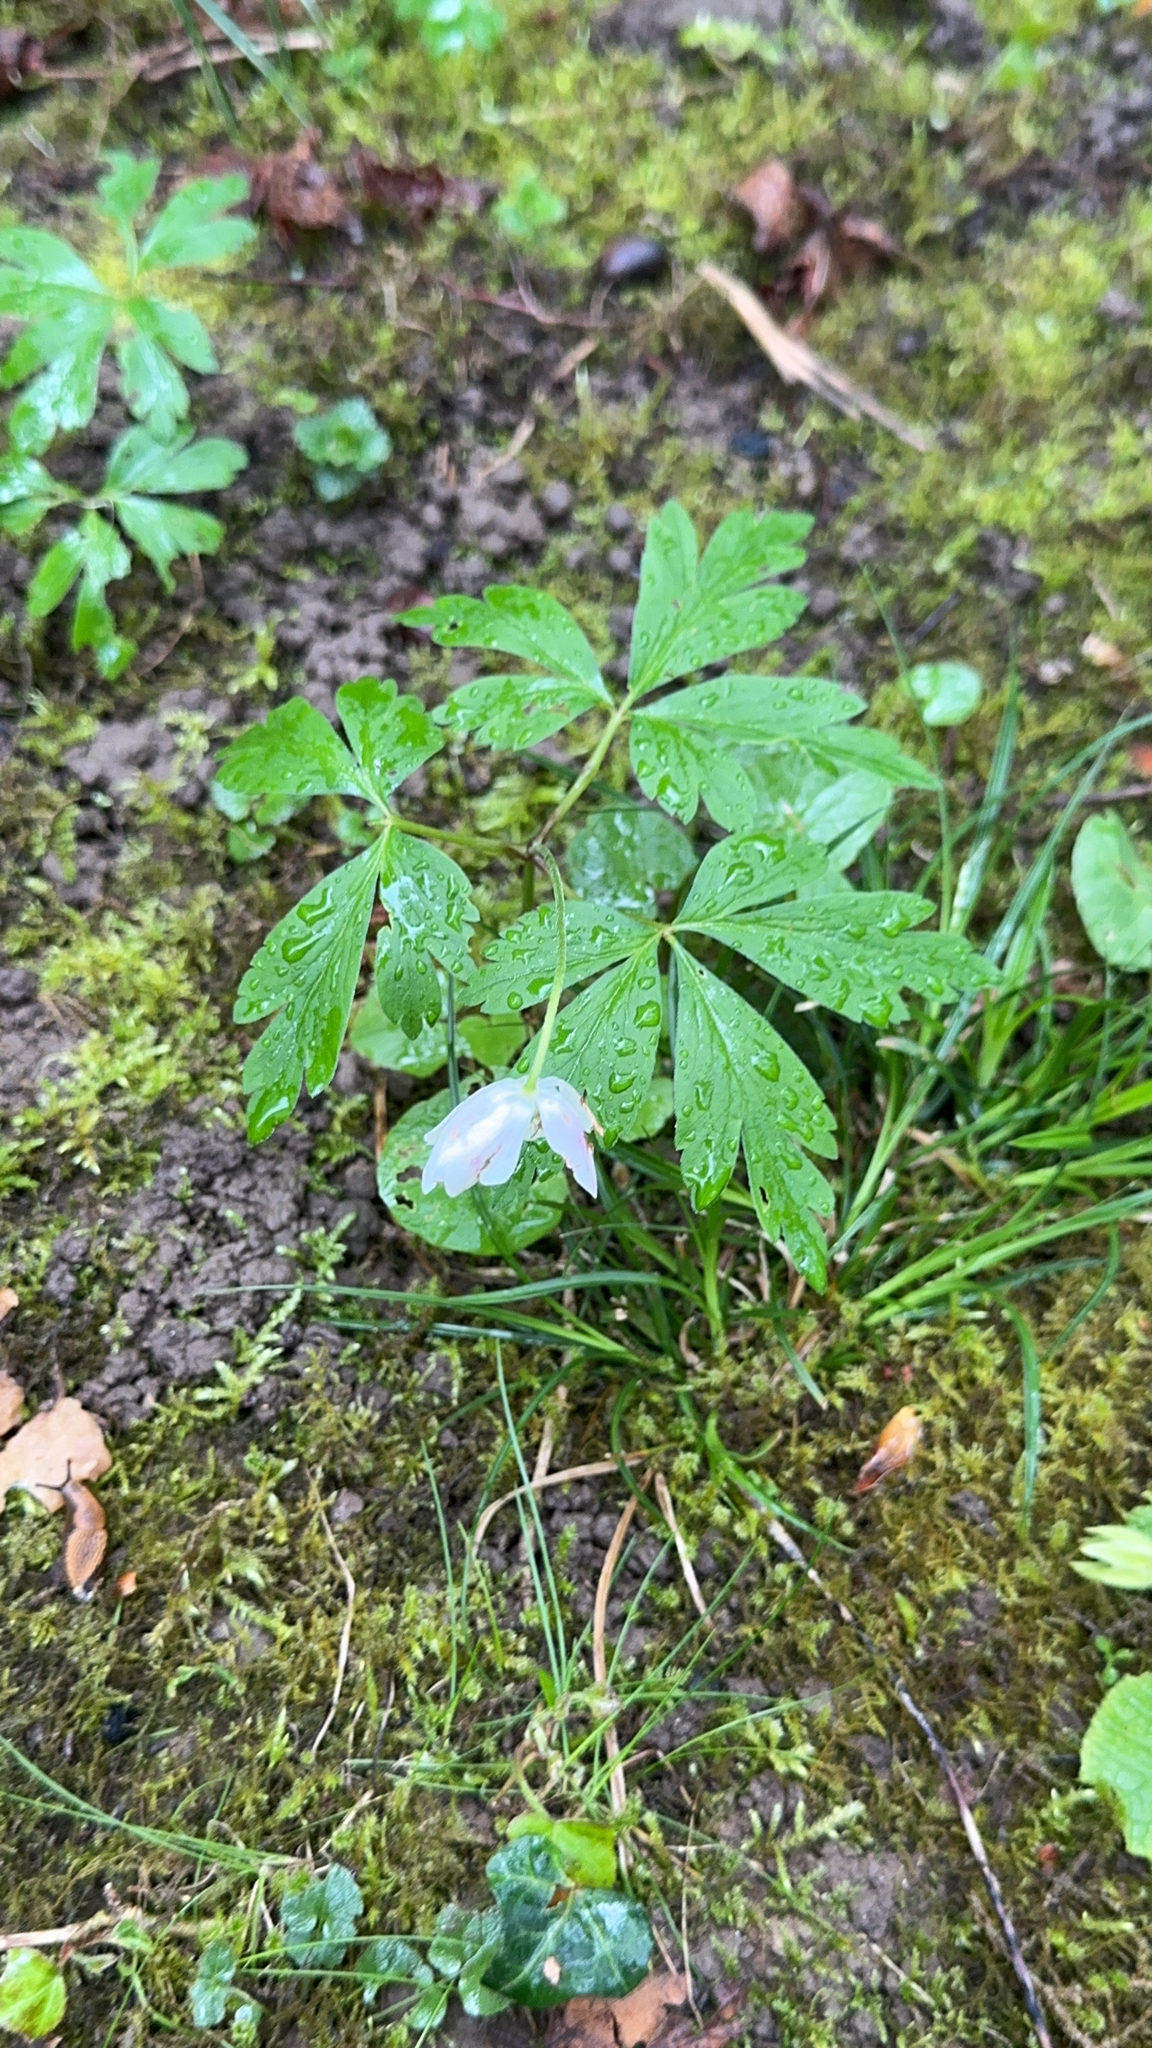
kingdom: Plantae
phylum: Tracheophyta
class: Magnoliopsida
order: Ranunculales
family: Ranunculaceae
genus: Anemone
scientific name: Anemone nemorosa
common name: Wood anemone
